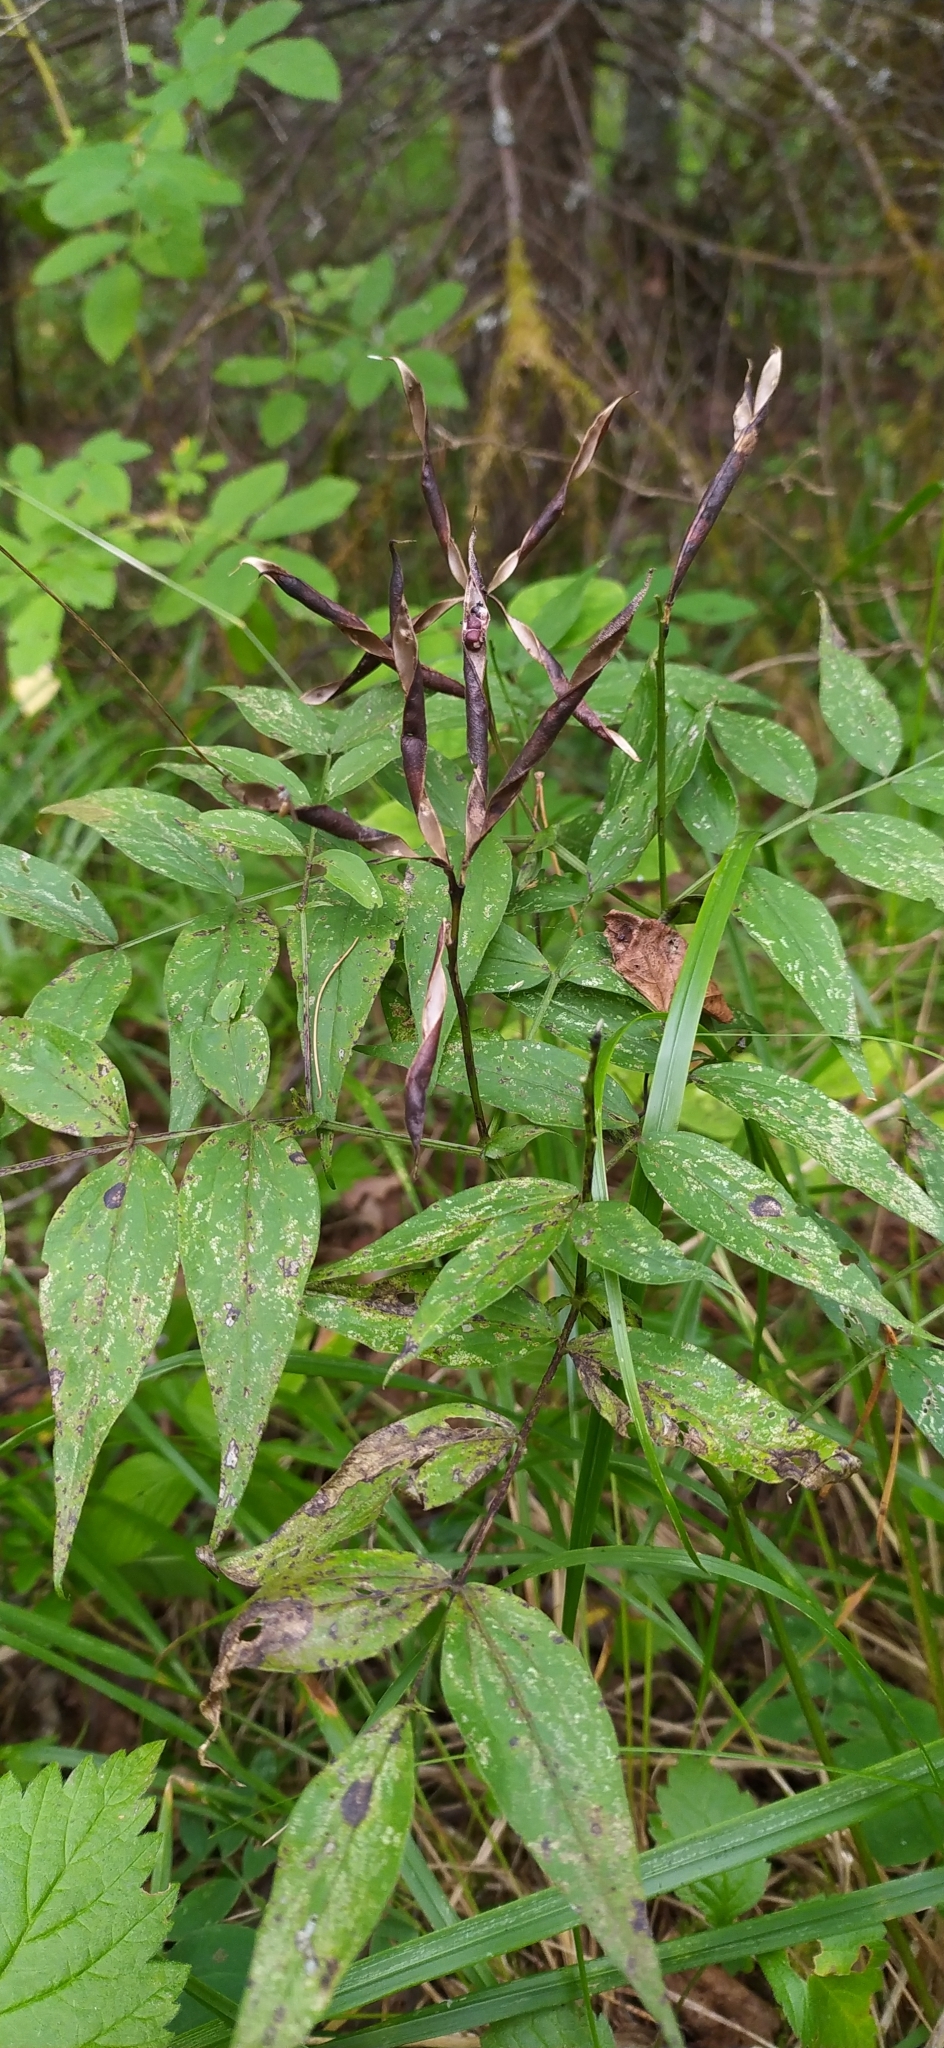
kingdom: Plantae
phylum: Tracheophyta
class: Magnoliopsida
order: Fabales
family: Fabaceae
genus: Lathyrus
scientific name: Lathyrus vernus
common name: Spring pea
